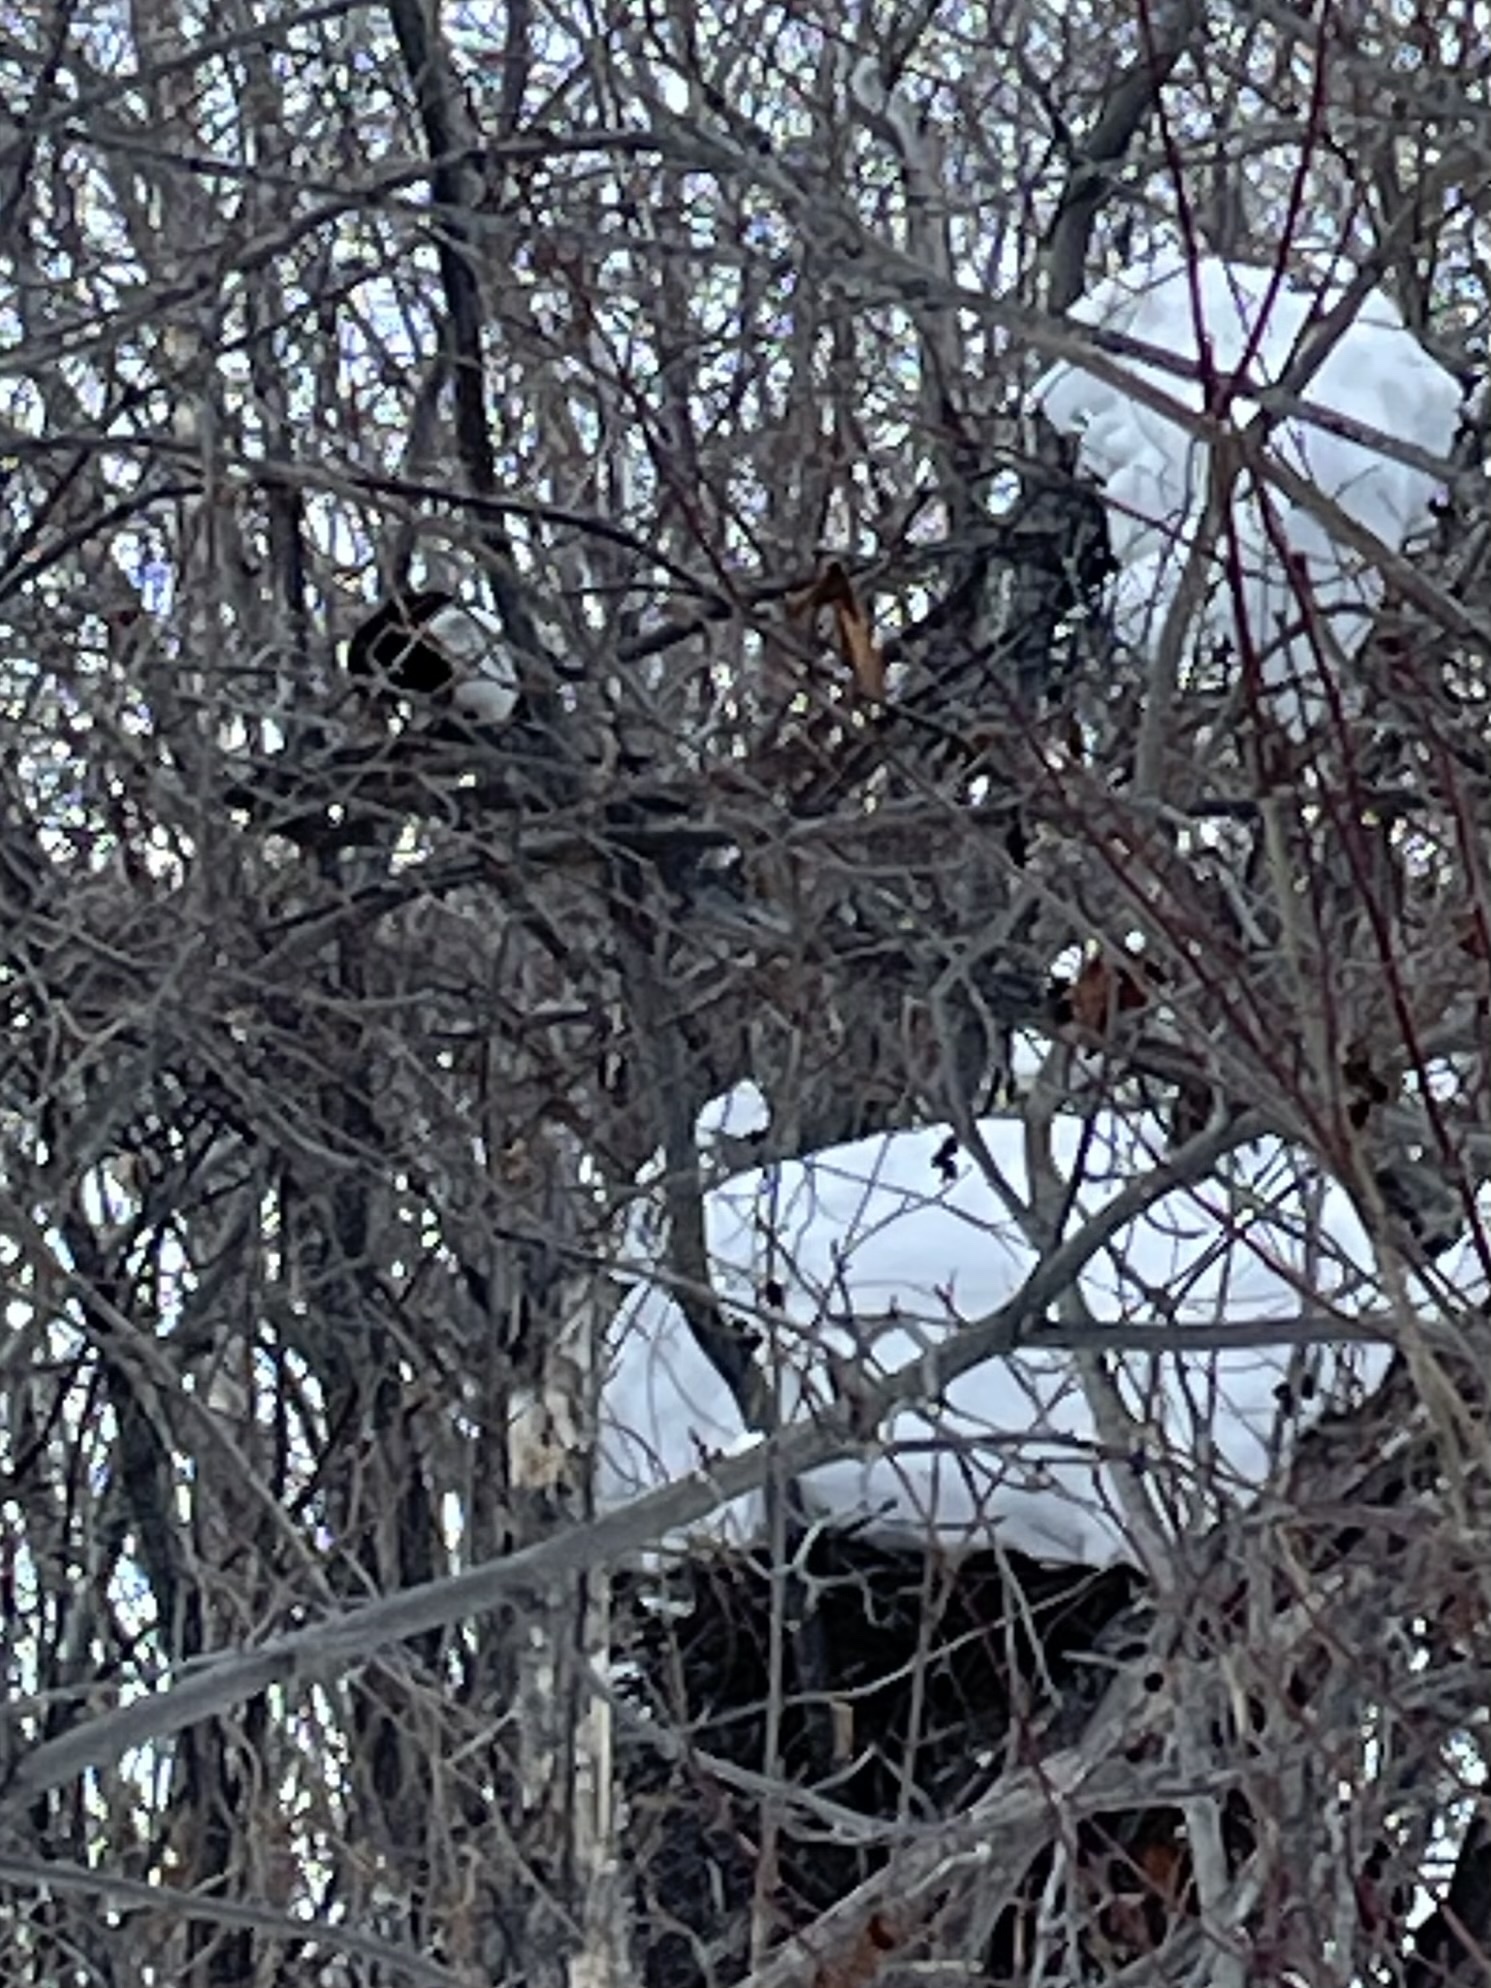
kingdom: Animalia
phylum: Chordata
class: Aves
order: Passeriformes
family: Corvidae
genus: Pica
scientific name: Pica hudsonia
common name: Black-billed magpie
